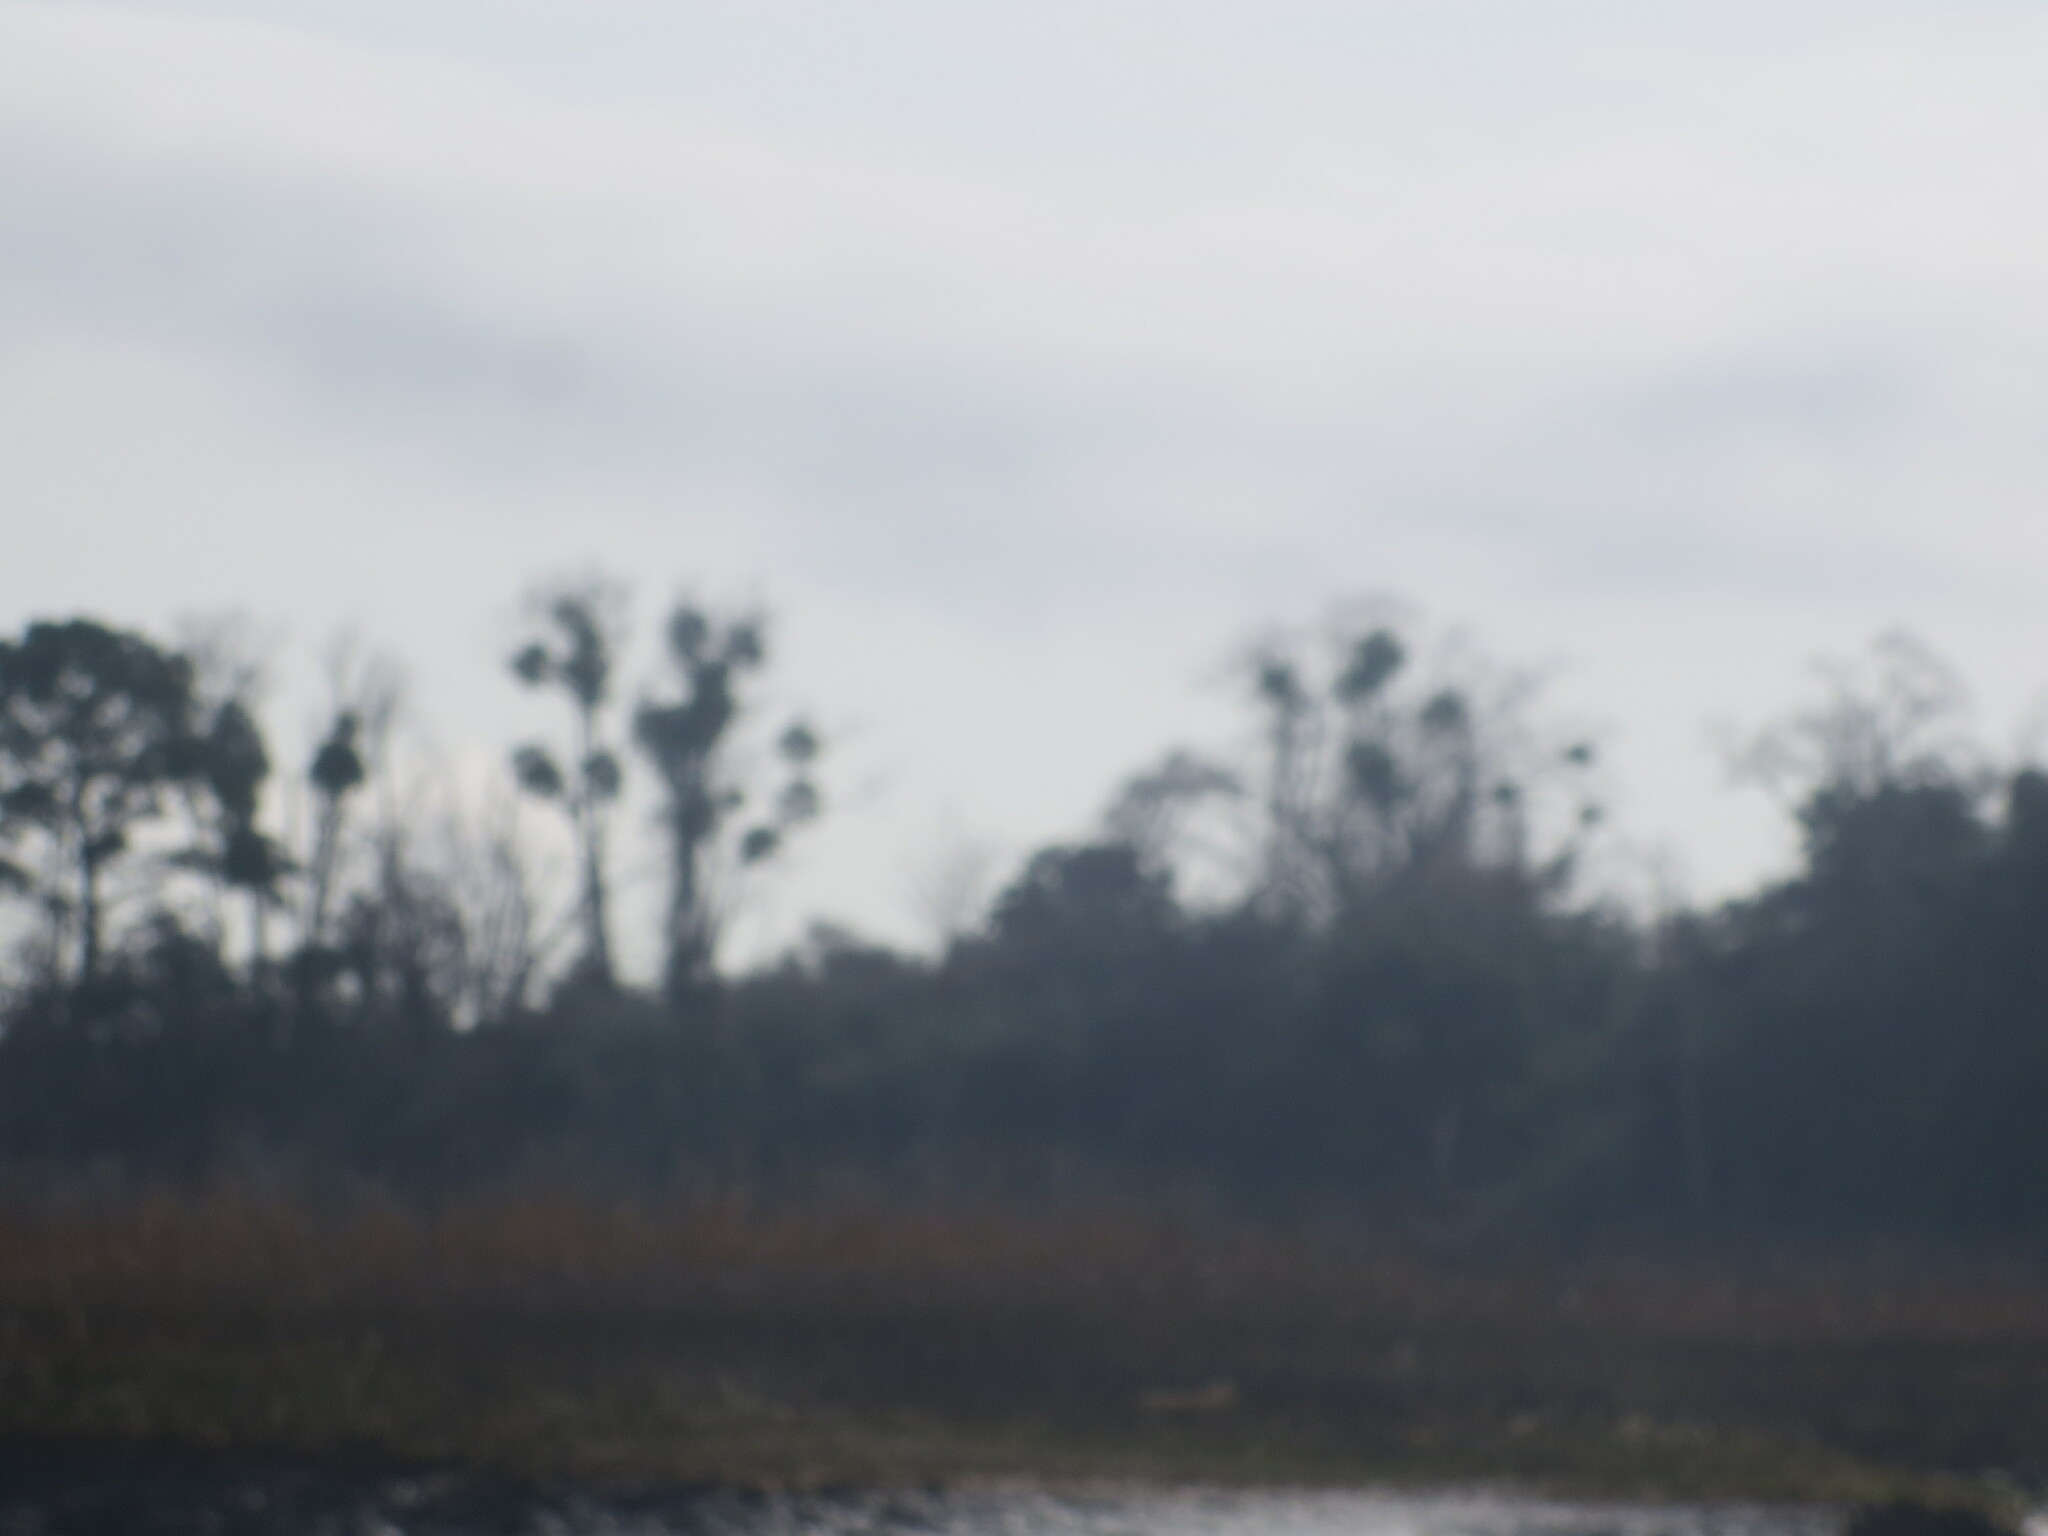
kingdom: Plantae
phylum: Tracheophyta
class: Magnoliopsida
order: Santalales
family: Viscaceae
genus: Phoradendron
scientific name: Phoradendron leucarpum
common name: Pacific mistletoe
